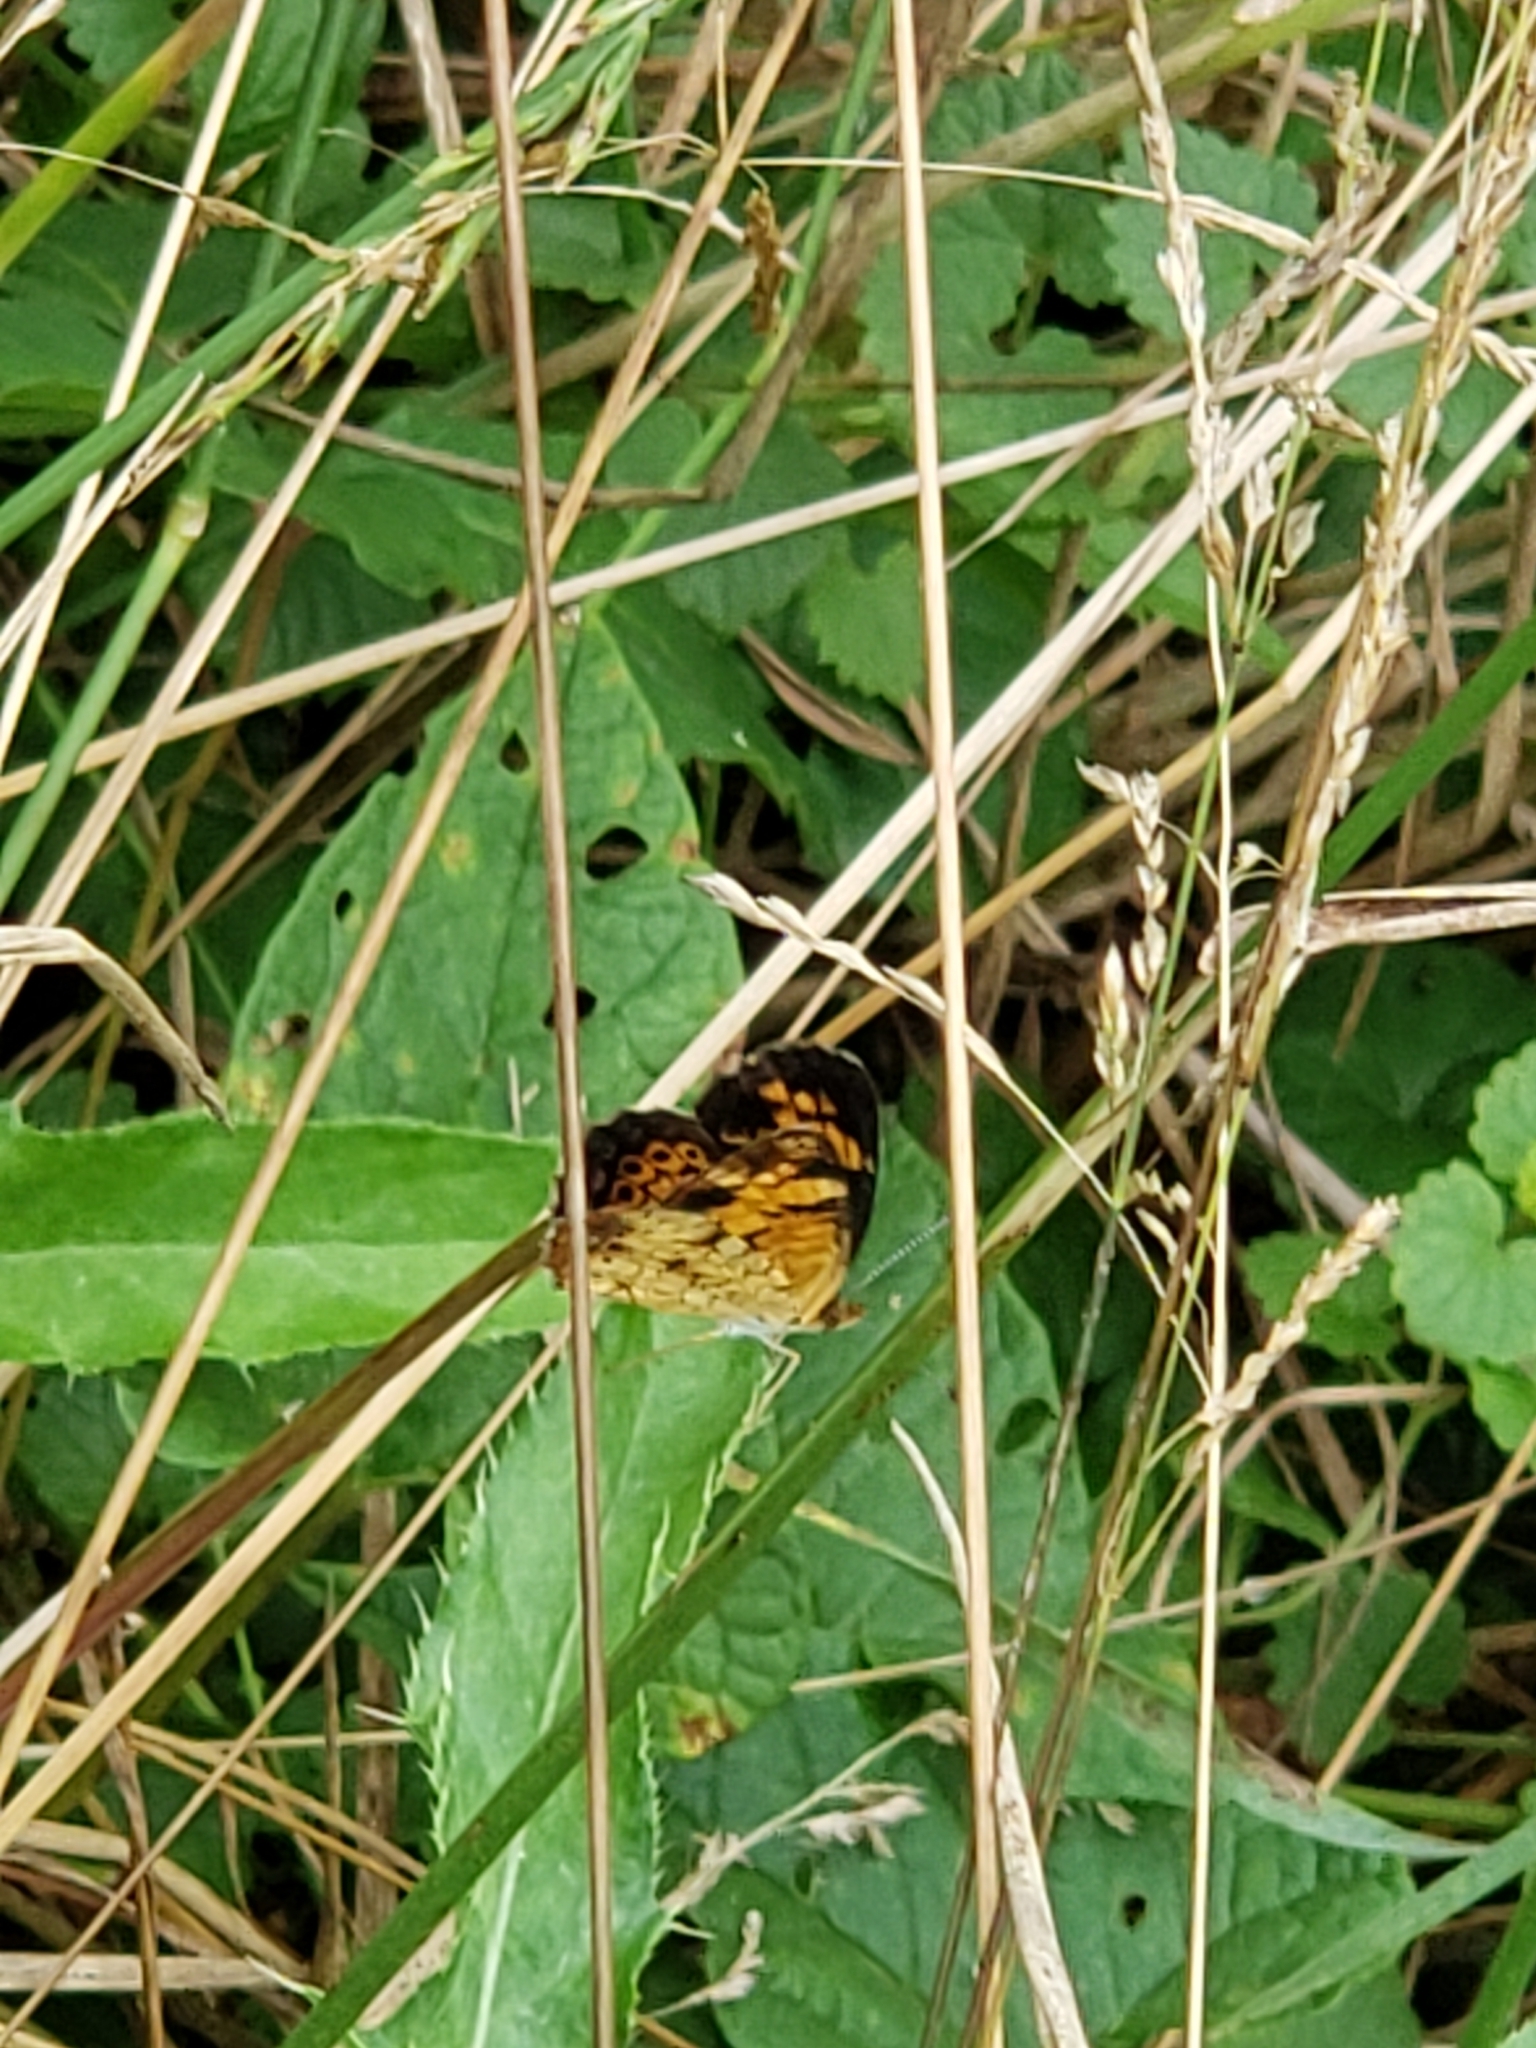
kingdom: Animalia
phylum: Arthropoda
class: Insecta
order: Lepidoptera
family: Nymphalidae
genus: Phyciodes
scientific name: Phyciodes tharos
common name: Pearl crescent
